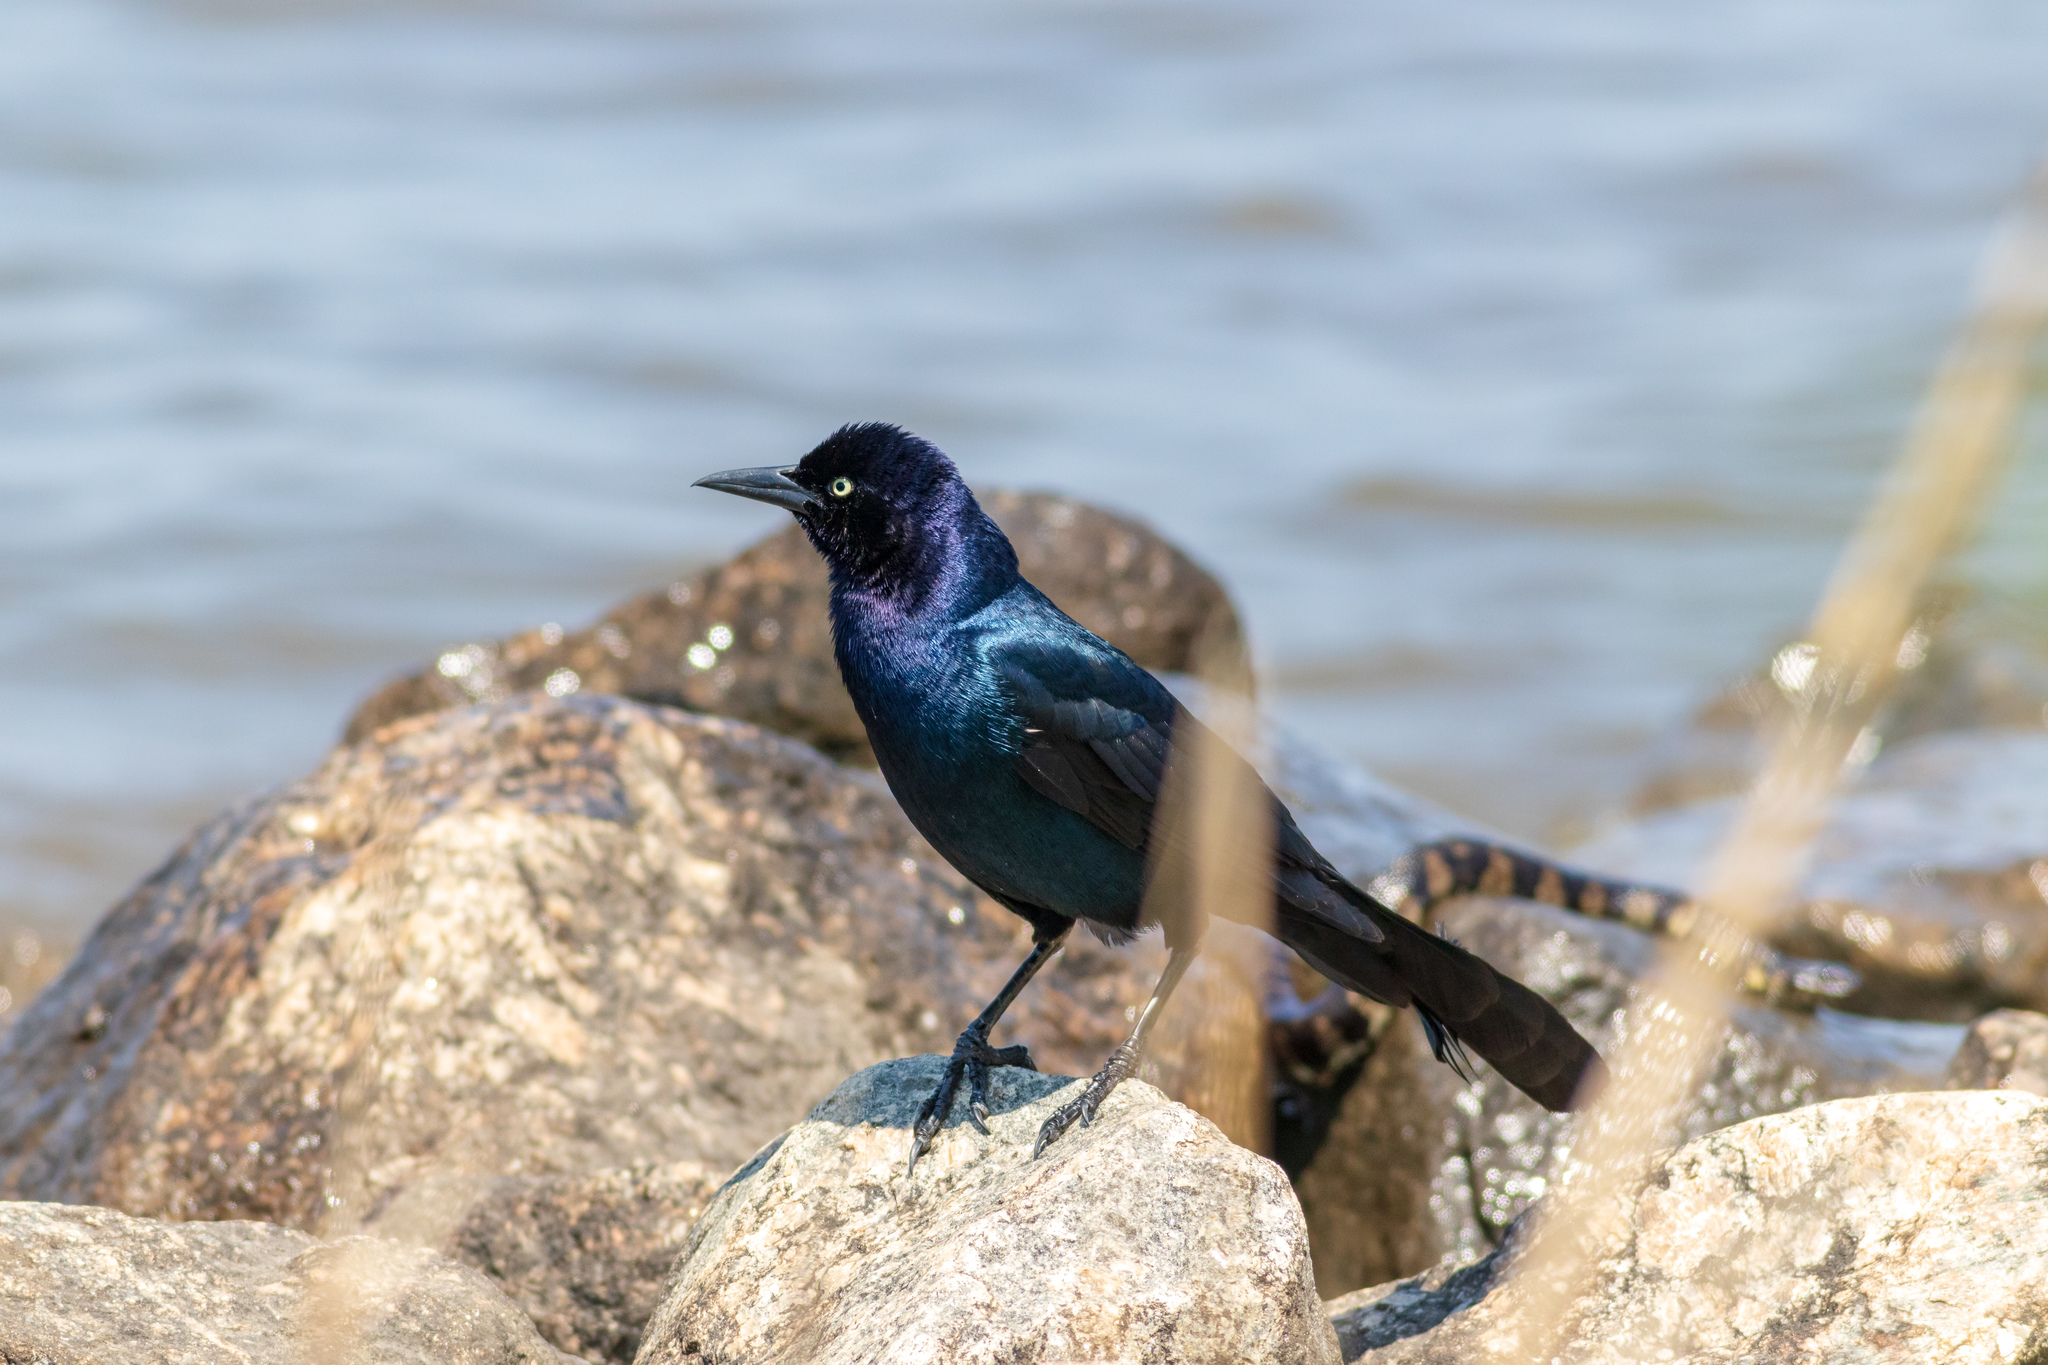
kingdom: Animalia
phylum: Chordata
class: Aves
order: Passeriformes
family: Icteridae
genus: Quiscalus
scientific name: Quiscalus major
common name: Boat-tailed grackle
